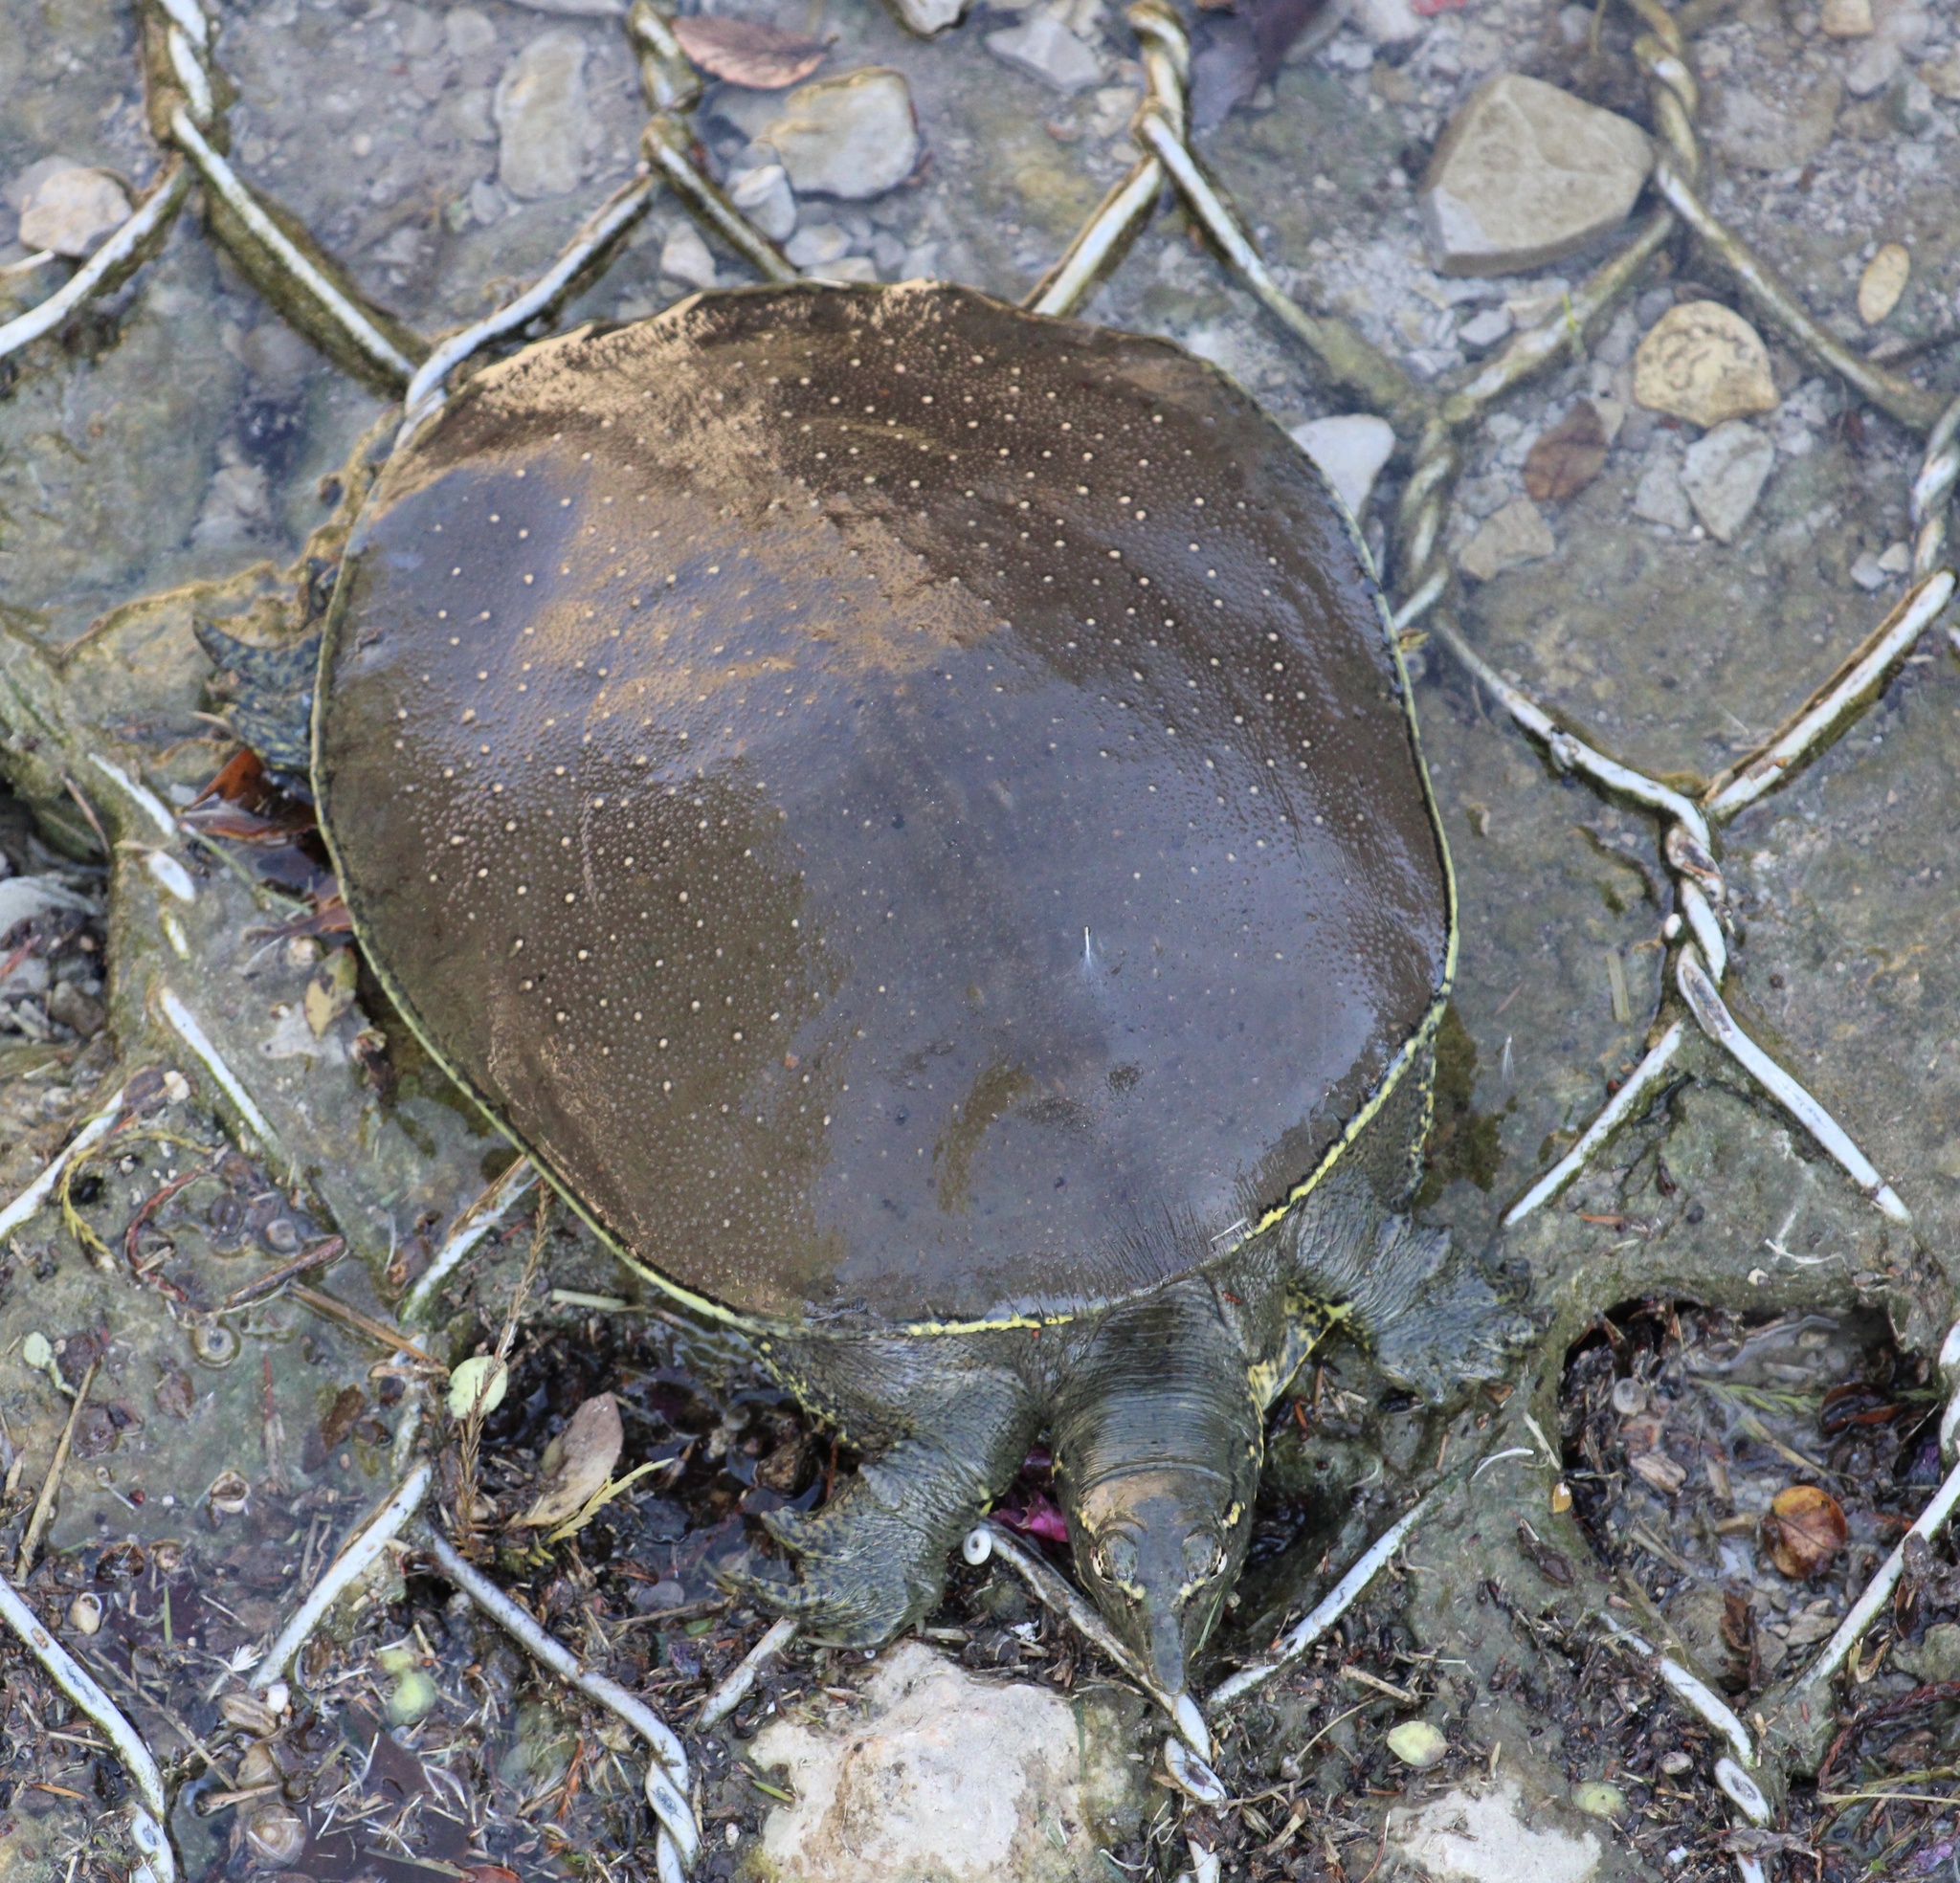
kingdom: Animalia
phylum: Chordata
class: Testudines
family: Trionychidae
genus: Apalone
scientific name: Apalone spinifera
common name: Spiny softshell turtle
